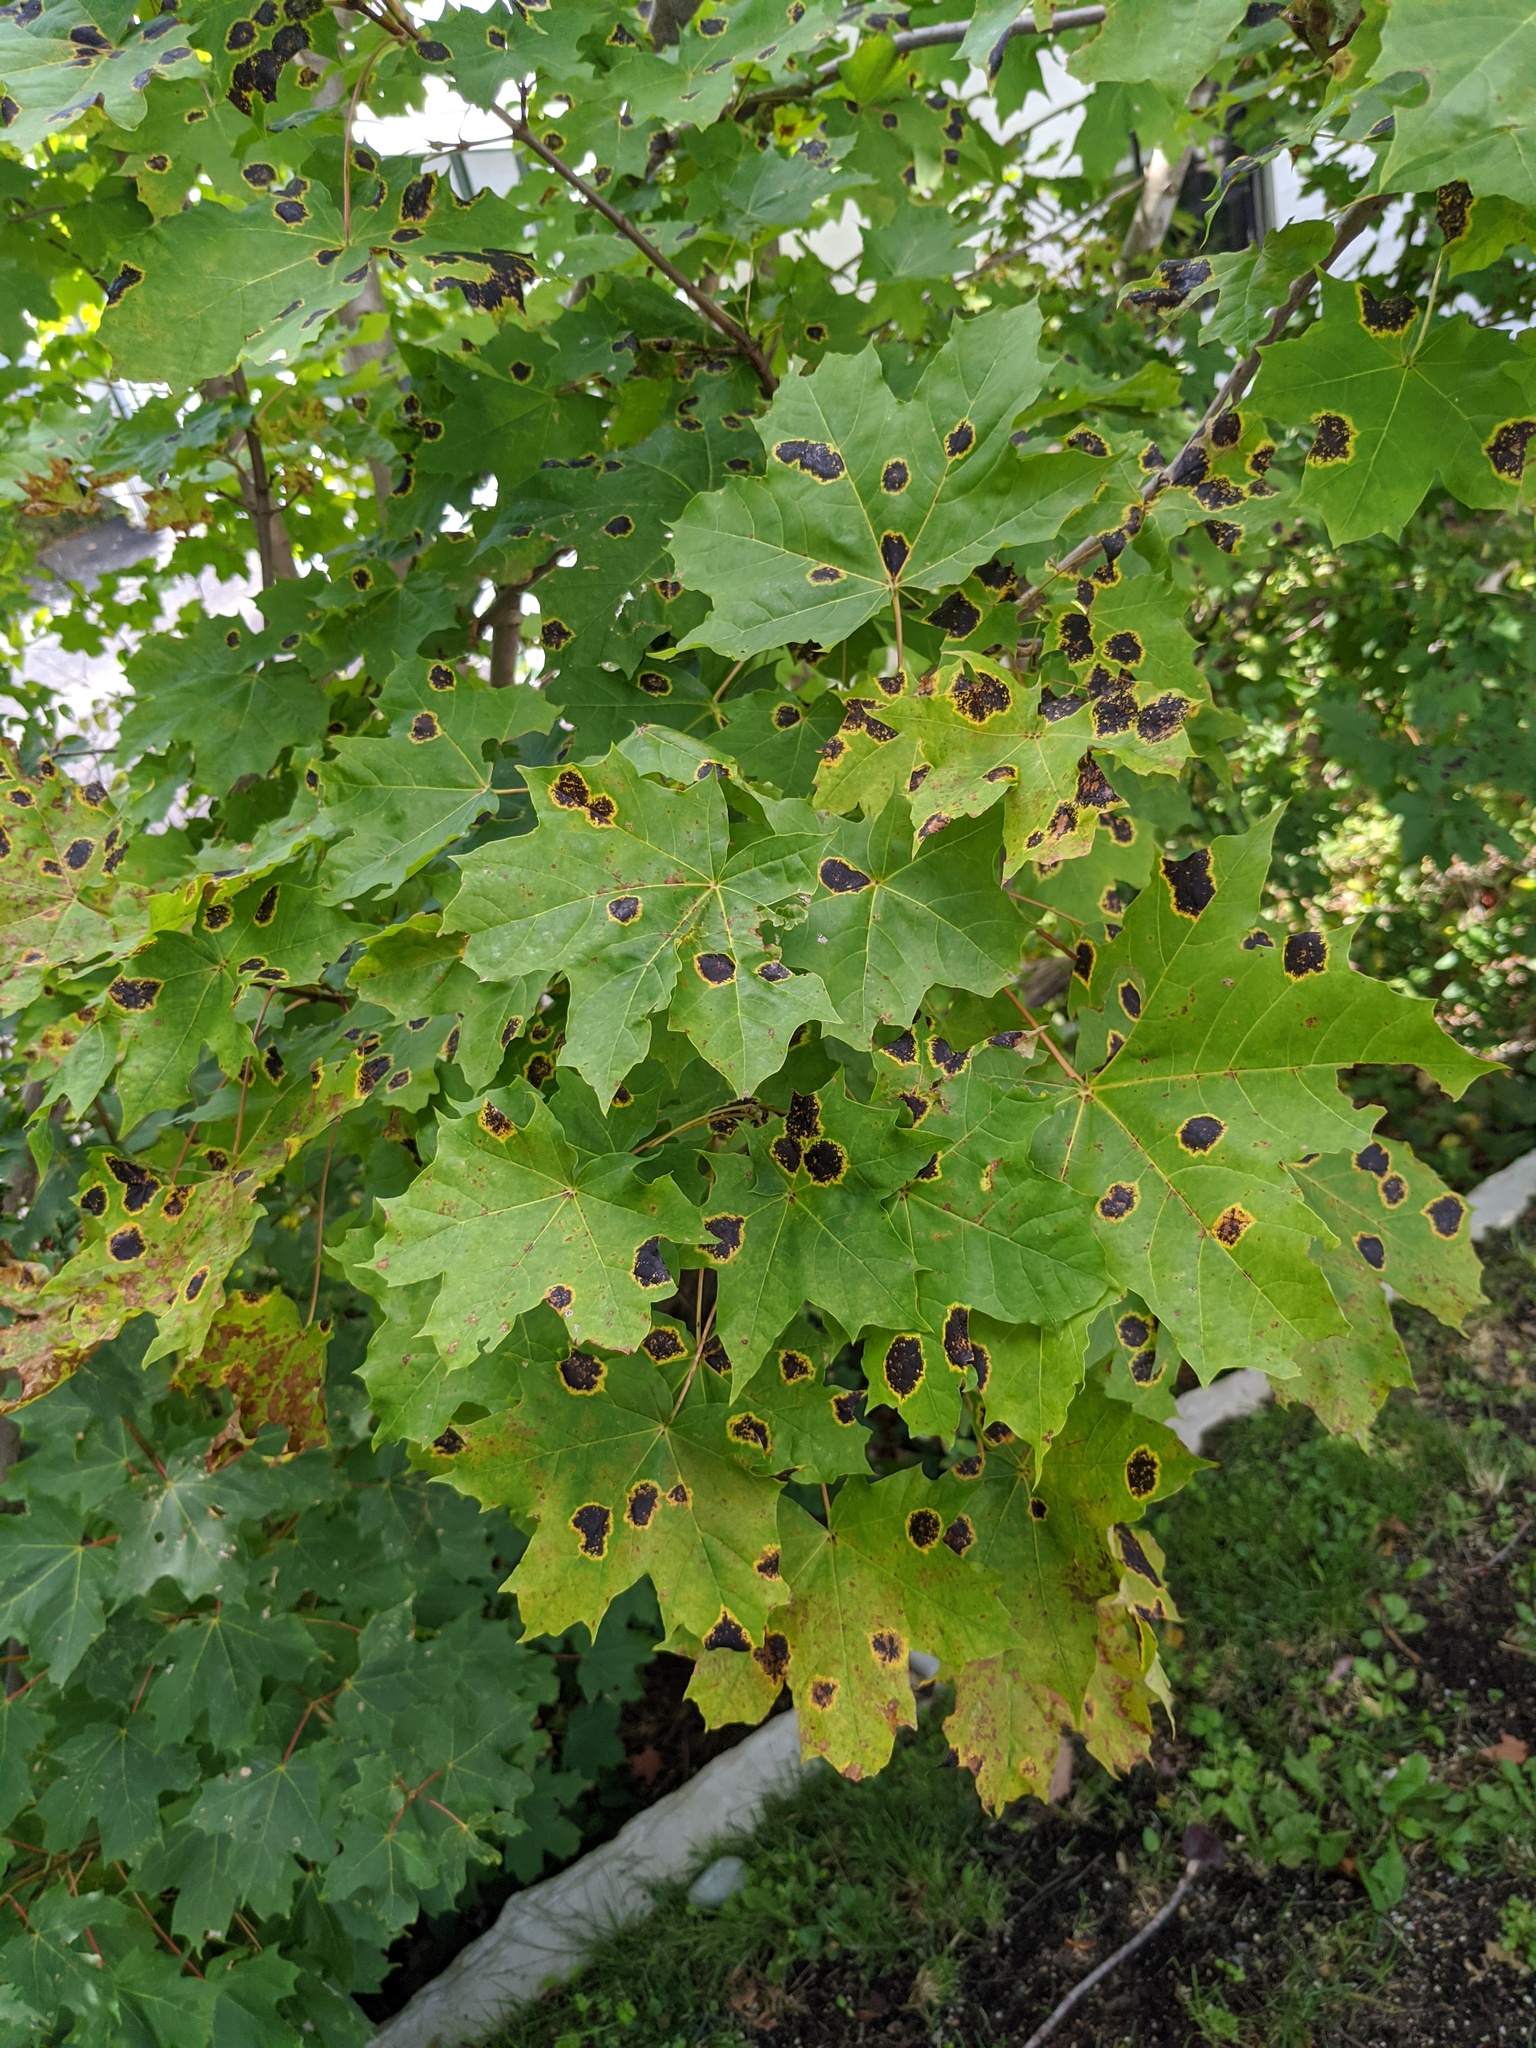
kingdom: Plantae
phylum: Tracheophyta
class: Magnoliopsida
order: Sapindales
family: Sapindaceae
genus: Acer
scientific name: Acer platanoides
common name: Norway maple
